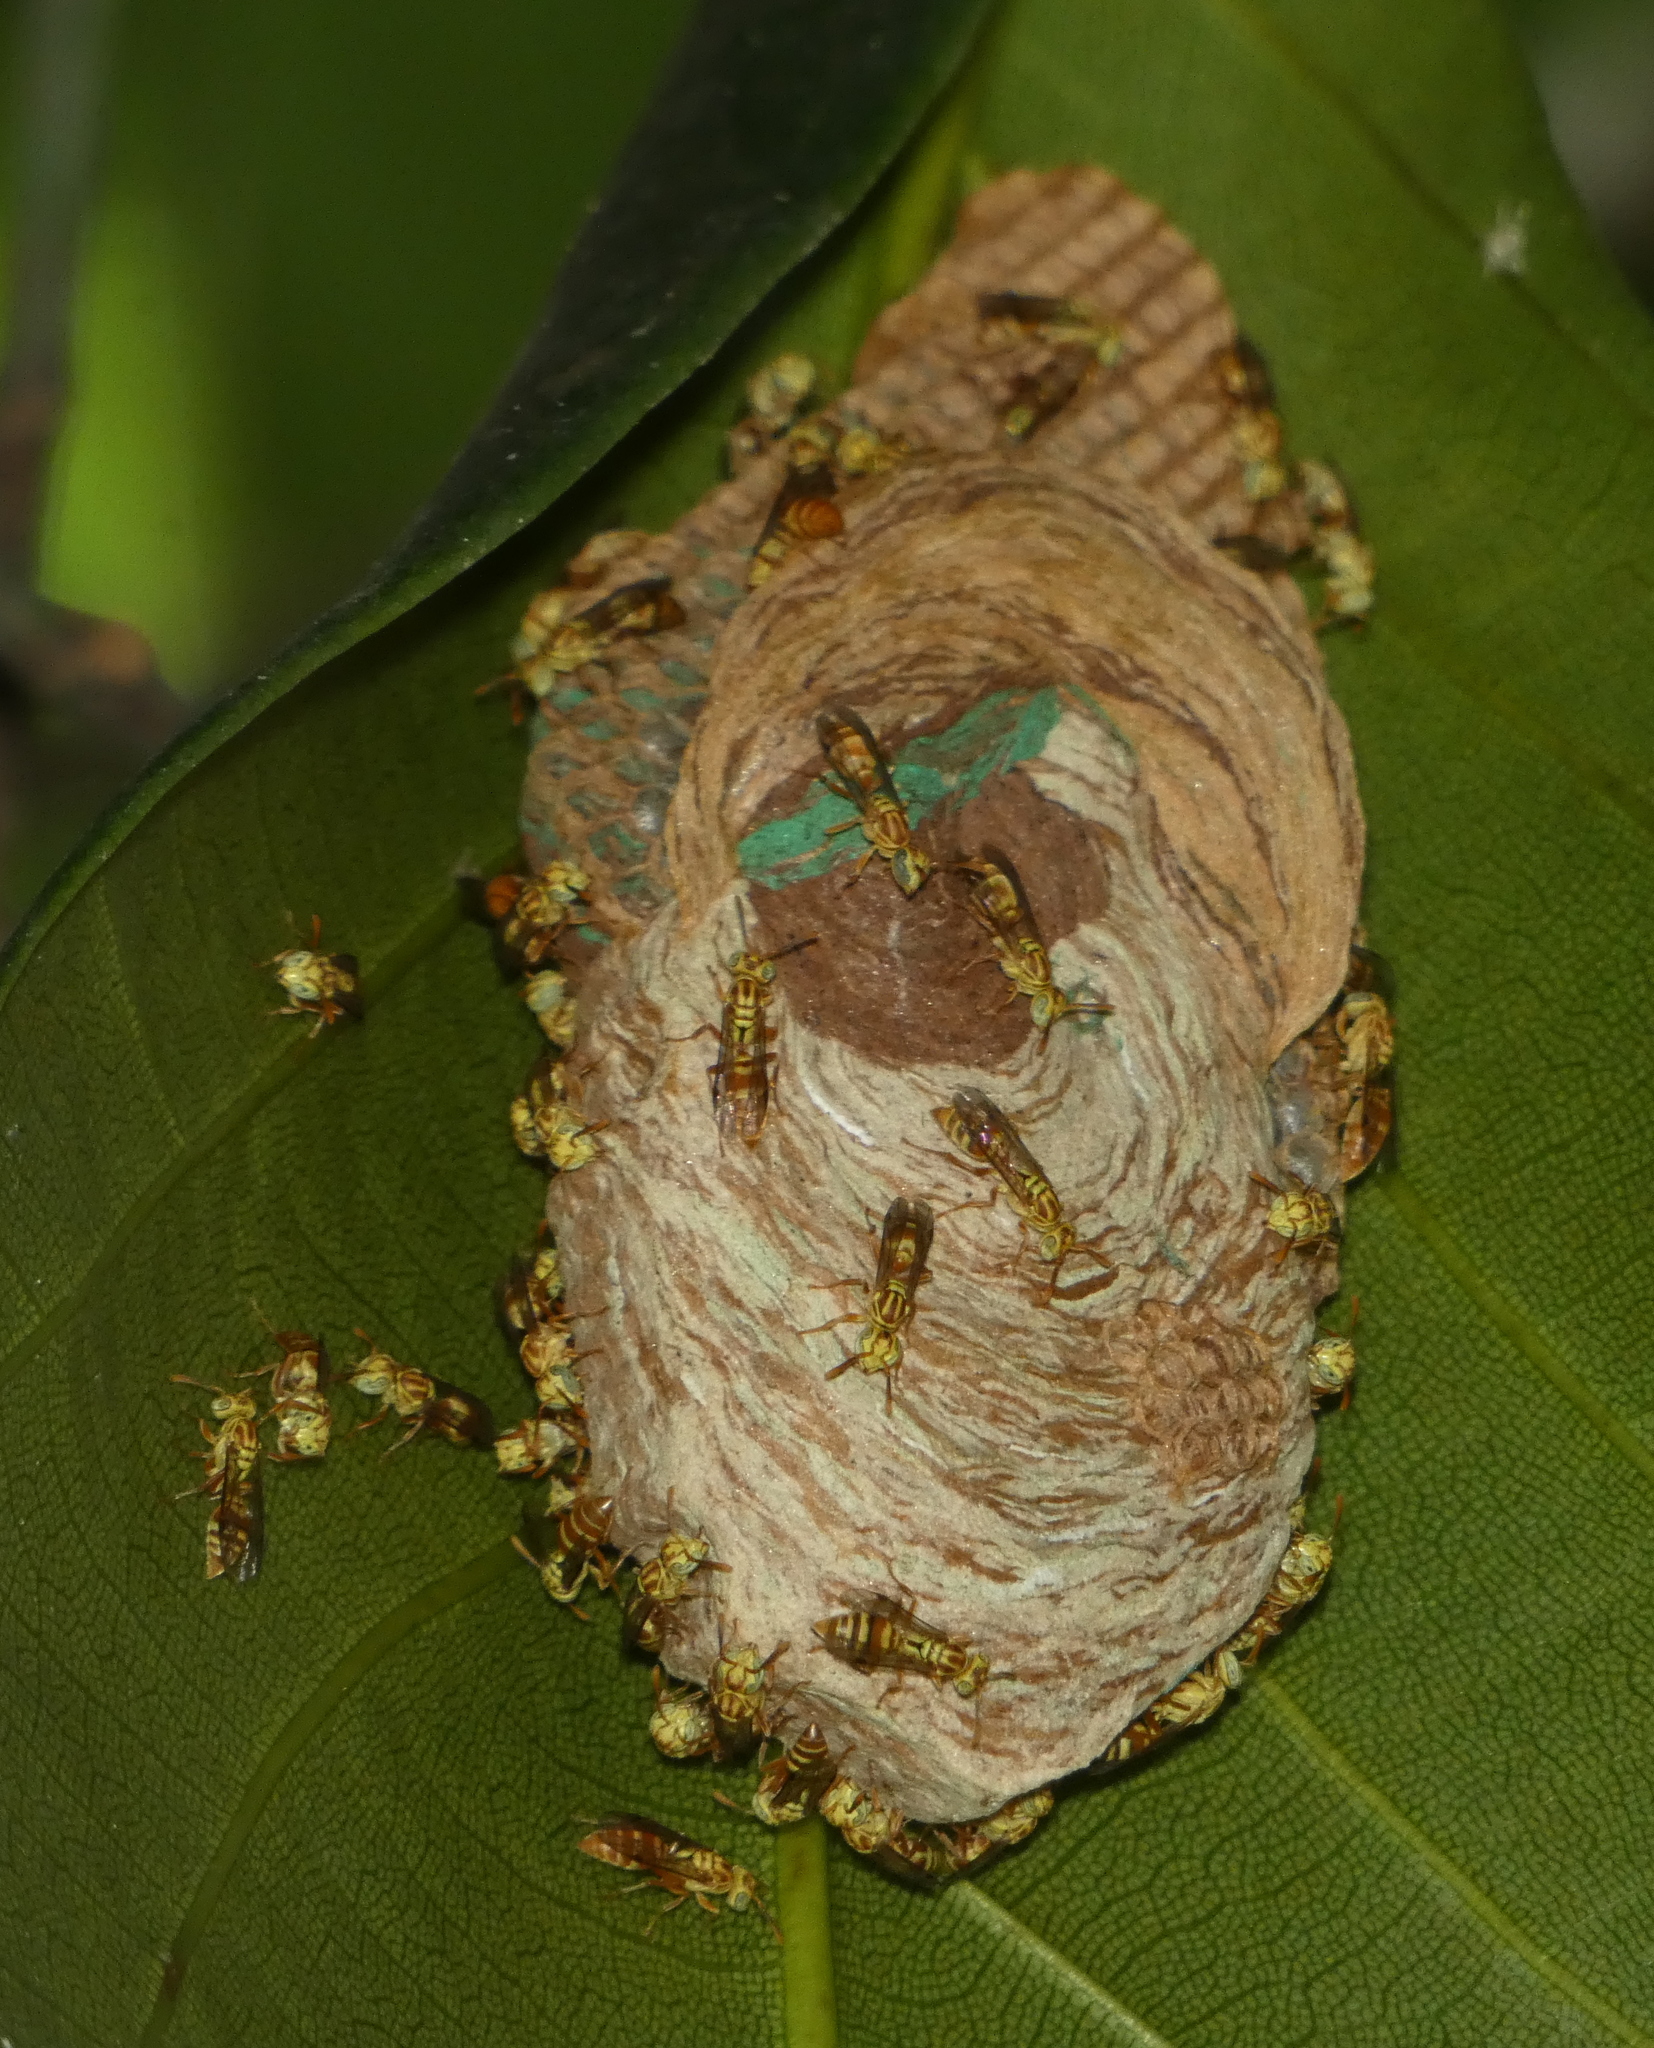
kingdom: Animalia
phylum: Arthropoda
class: Insecta
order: Hymenoptera
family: Vespidae
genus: Protopolybia
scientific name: Protopolybia potiguara
